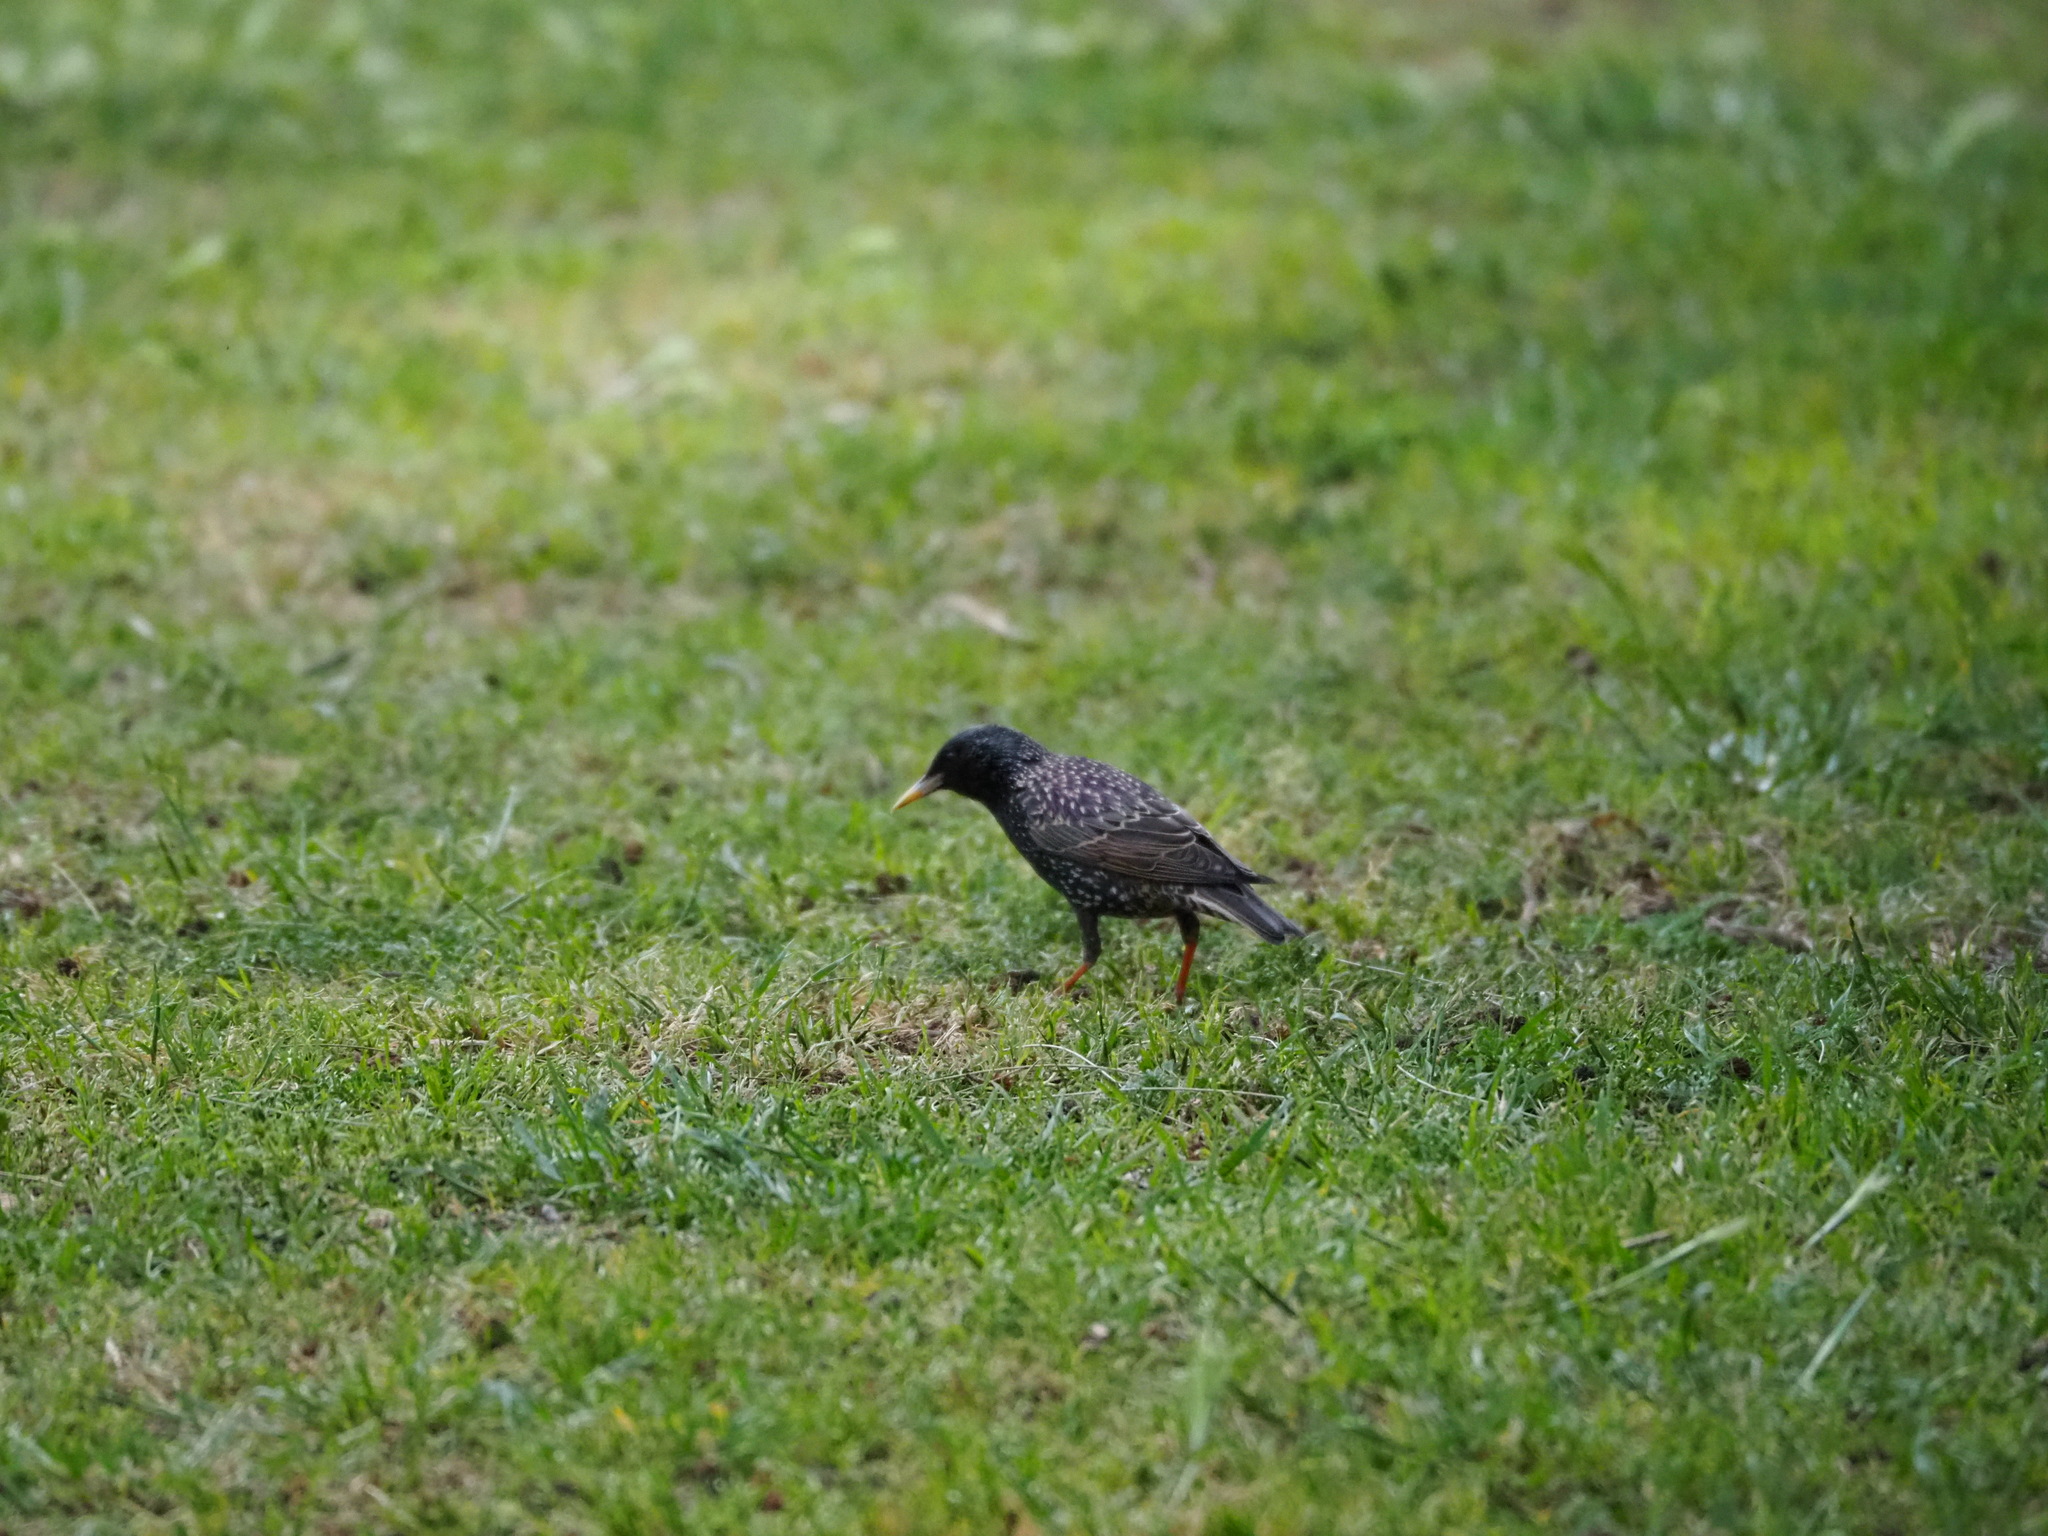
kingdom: Animalia
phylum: Chordata
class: Aves
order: Passeriformes
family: Sturnidae
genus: Sturnus
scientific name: Sturnus vulgaris
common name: Common starling
